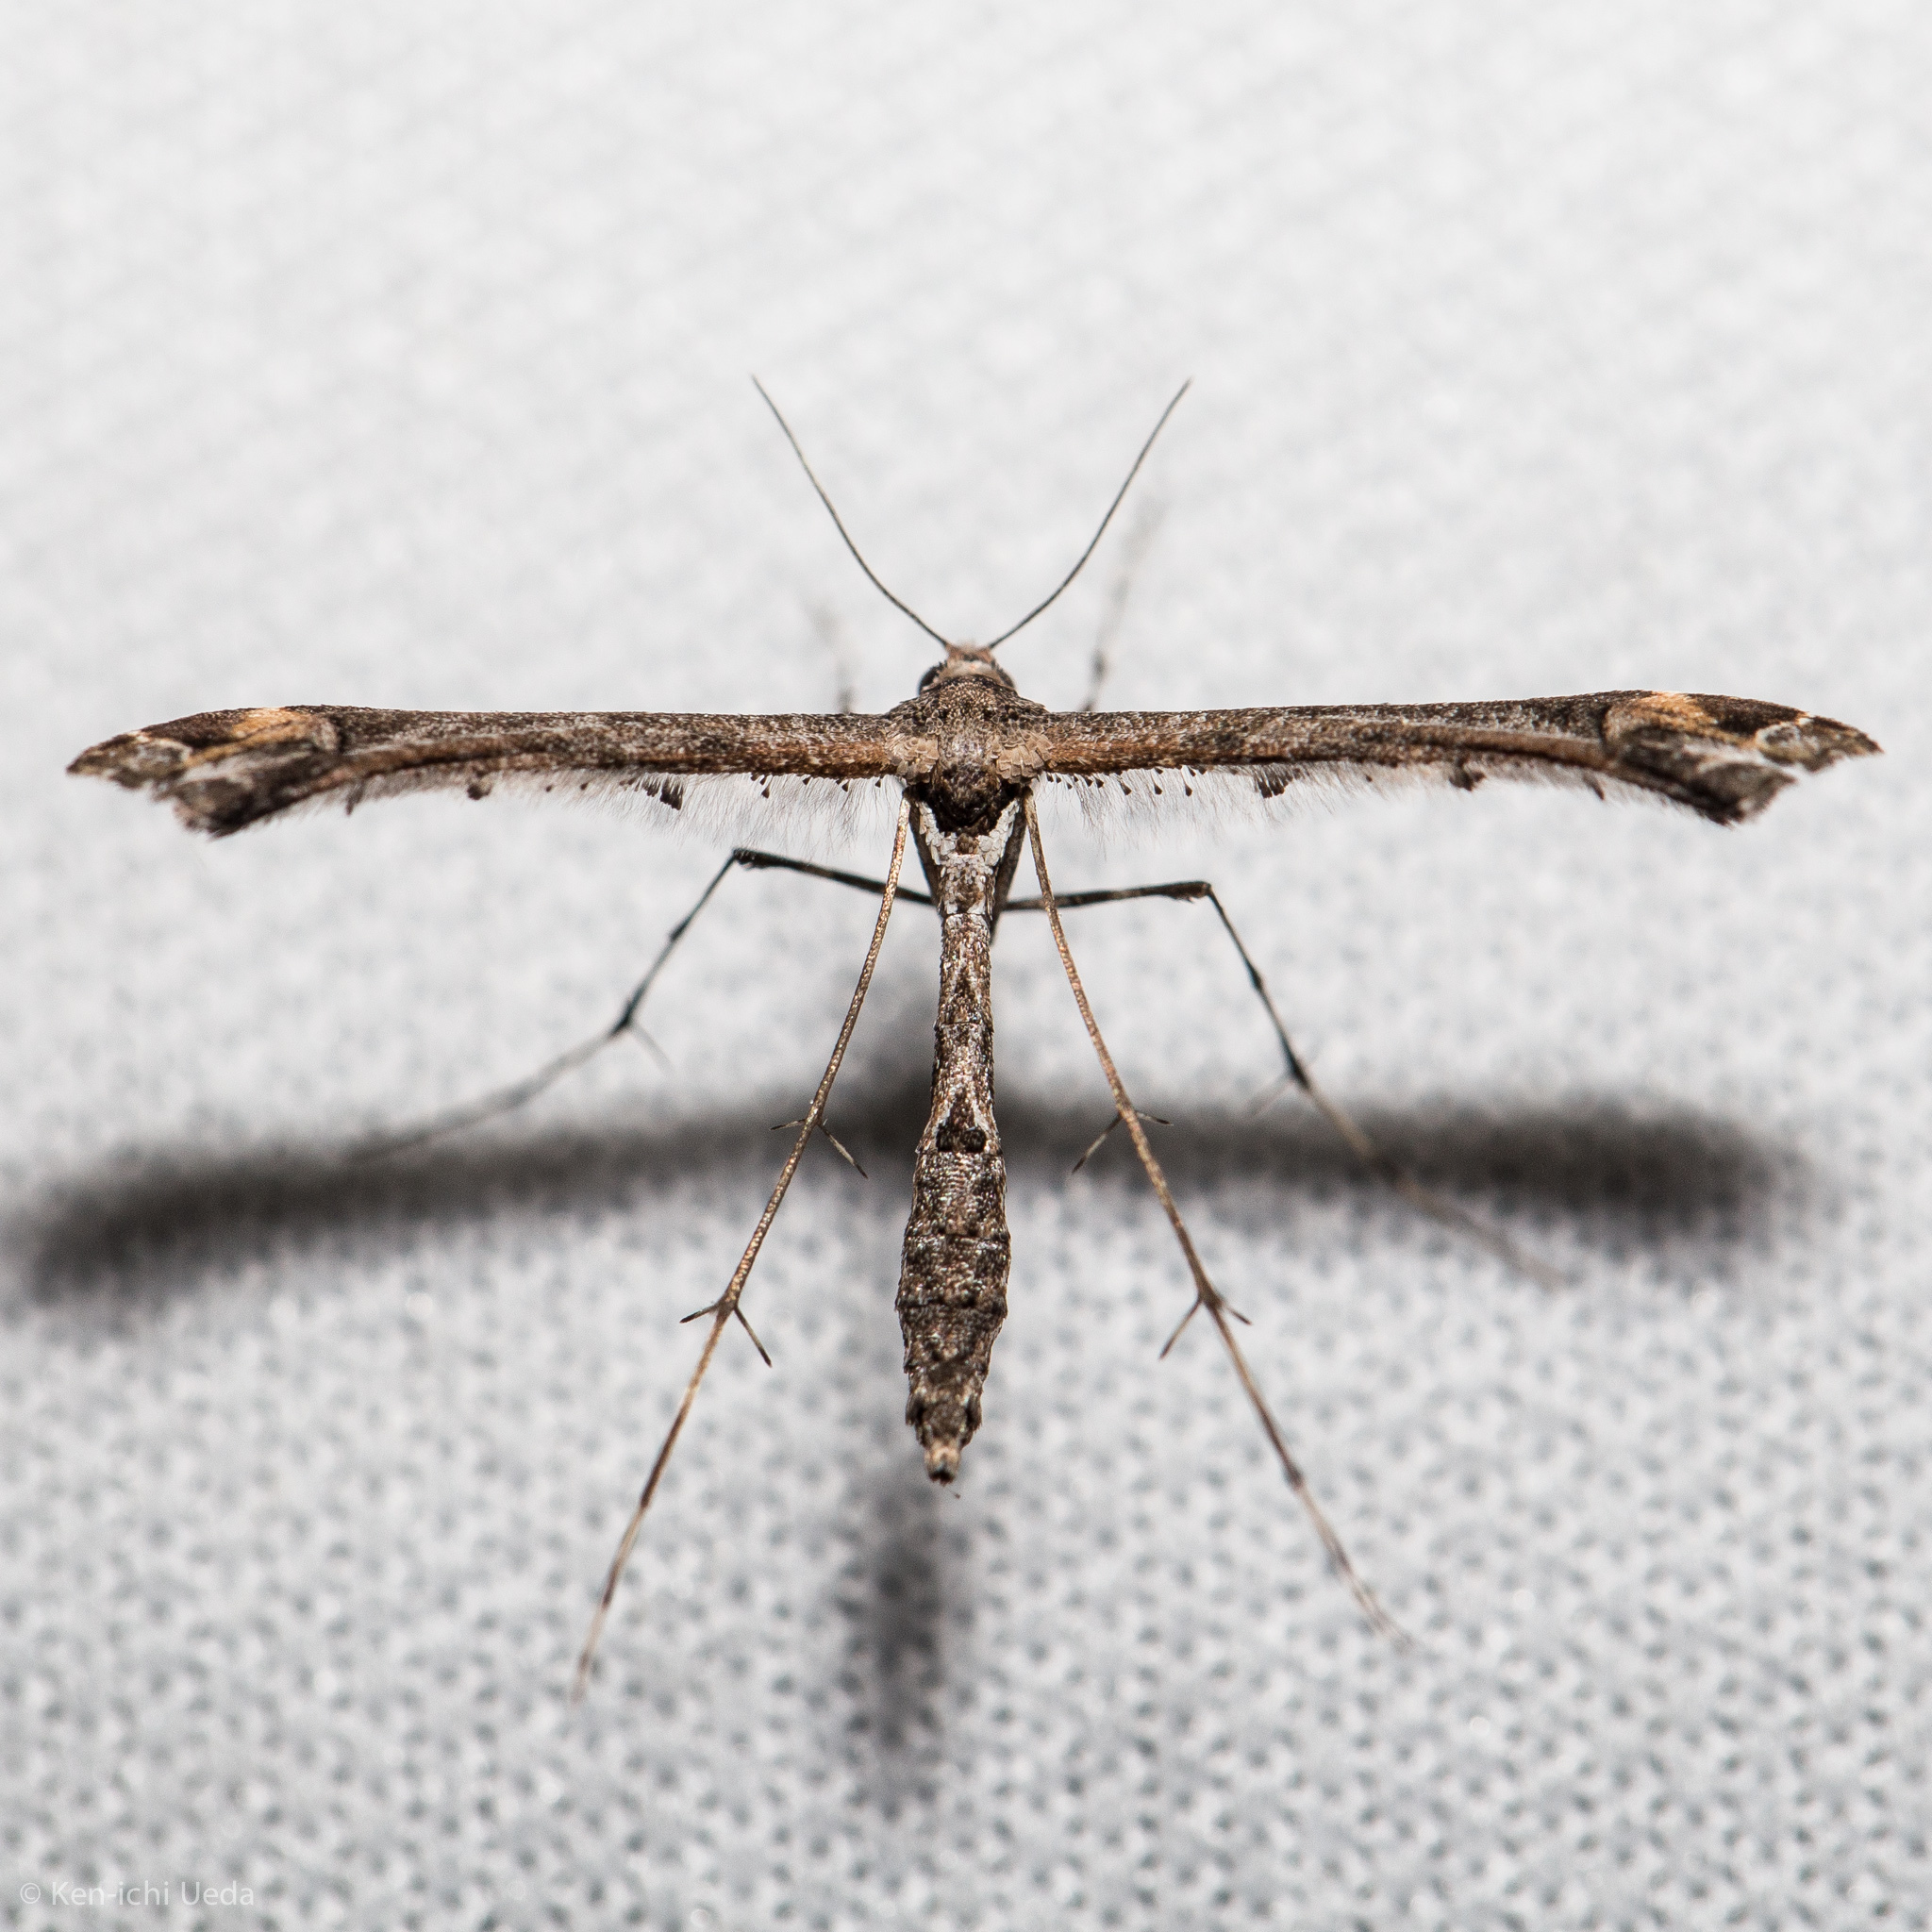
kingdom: Animalia
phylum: Arthropoda
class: Insecta
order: Lepidoptera
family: Pterophoridae
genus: Anstenoptilia
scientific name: Anstenoptilia marmarodactyla
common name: Moth
